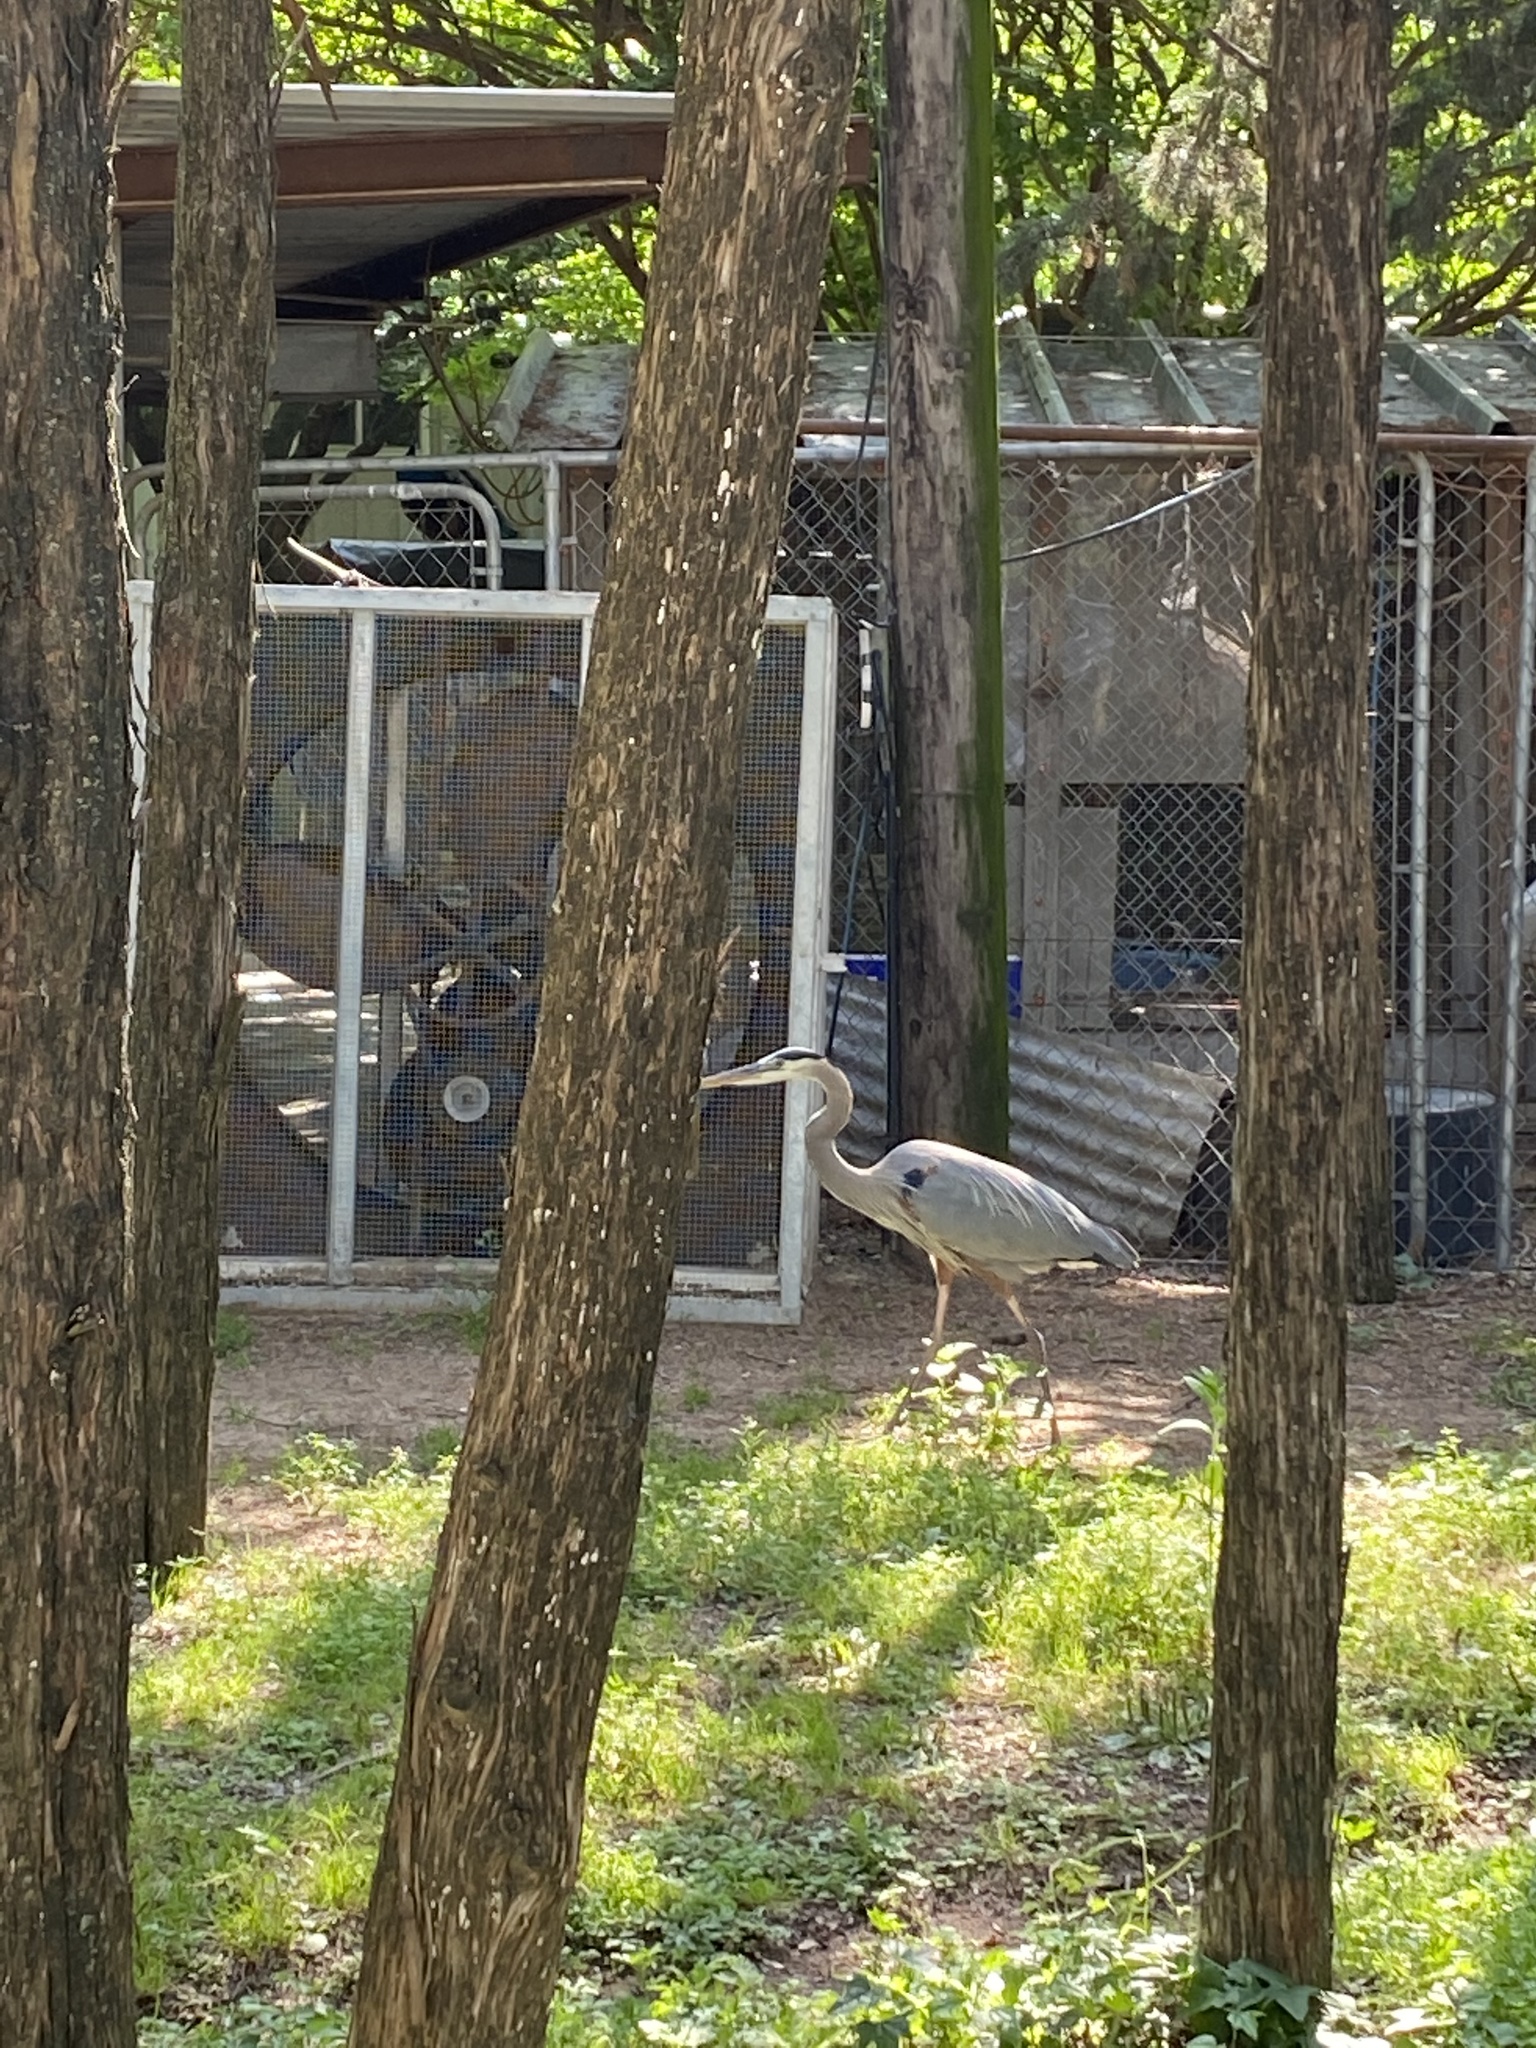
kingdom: Animalia
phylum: Chordata
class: Aves
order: Pelecaniformes
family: Ardeidae
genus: Ardea
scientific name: Ardea herodias
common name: Great blue heron
